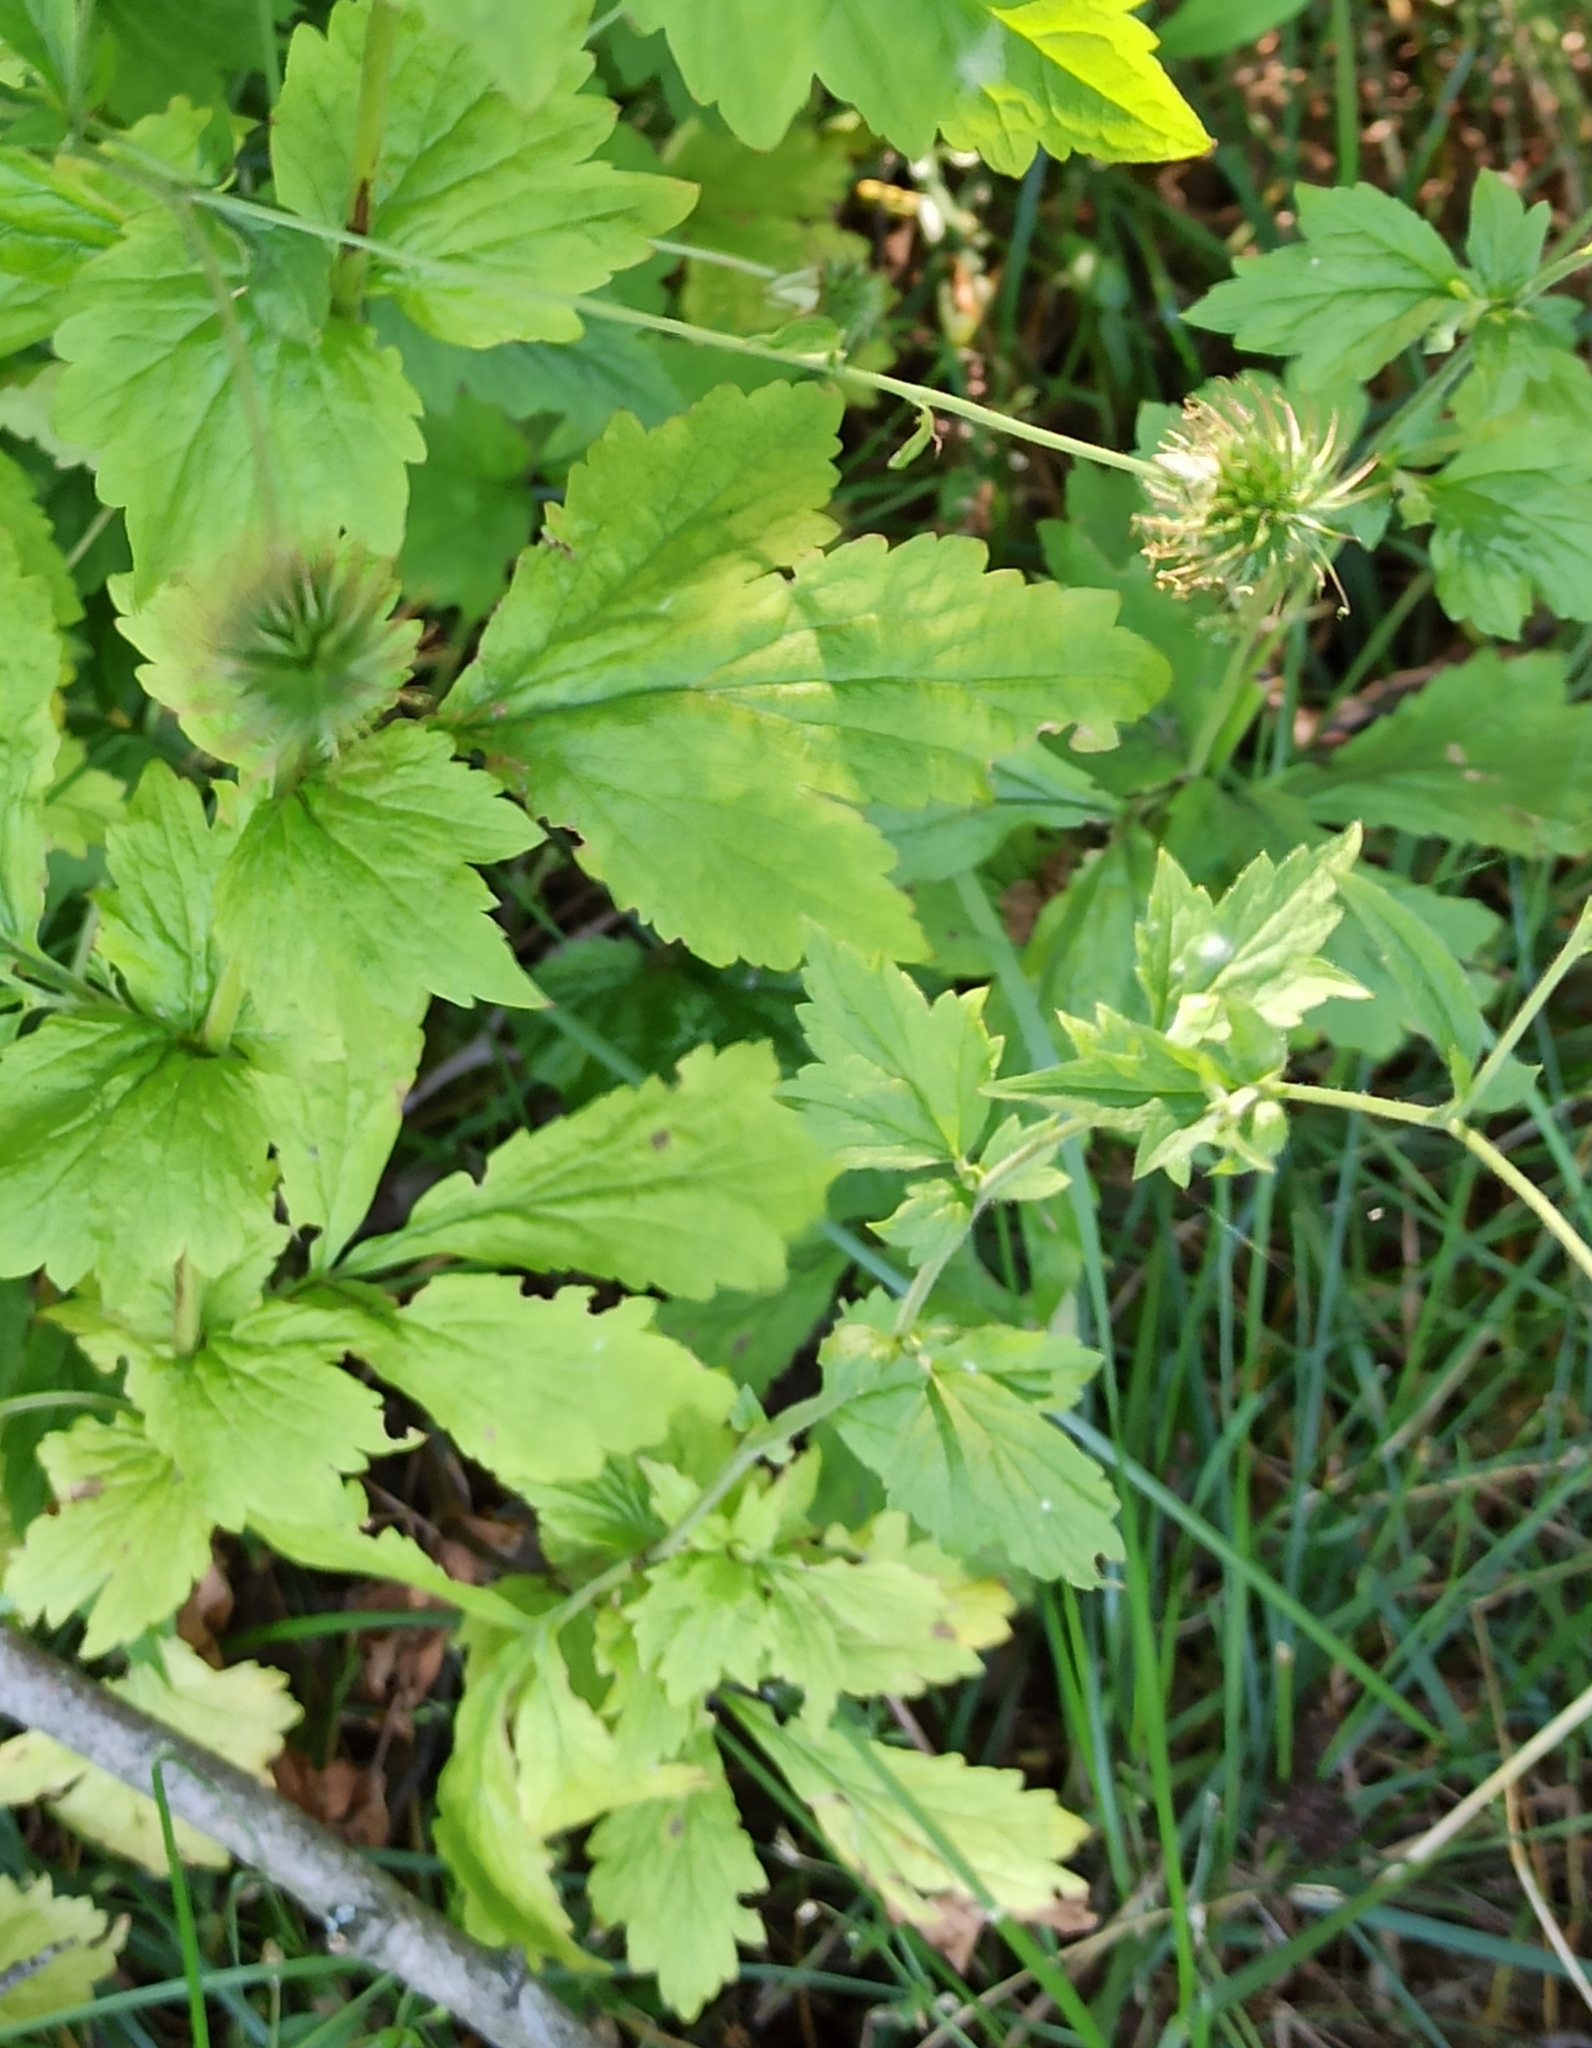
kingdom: Plantae
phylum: Tracheophyta
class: Magnoliopsida
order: Rosales
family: Rosaceae
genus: Geum
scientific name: Geum urbanum
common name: Wood avens
